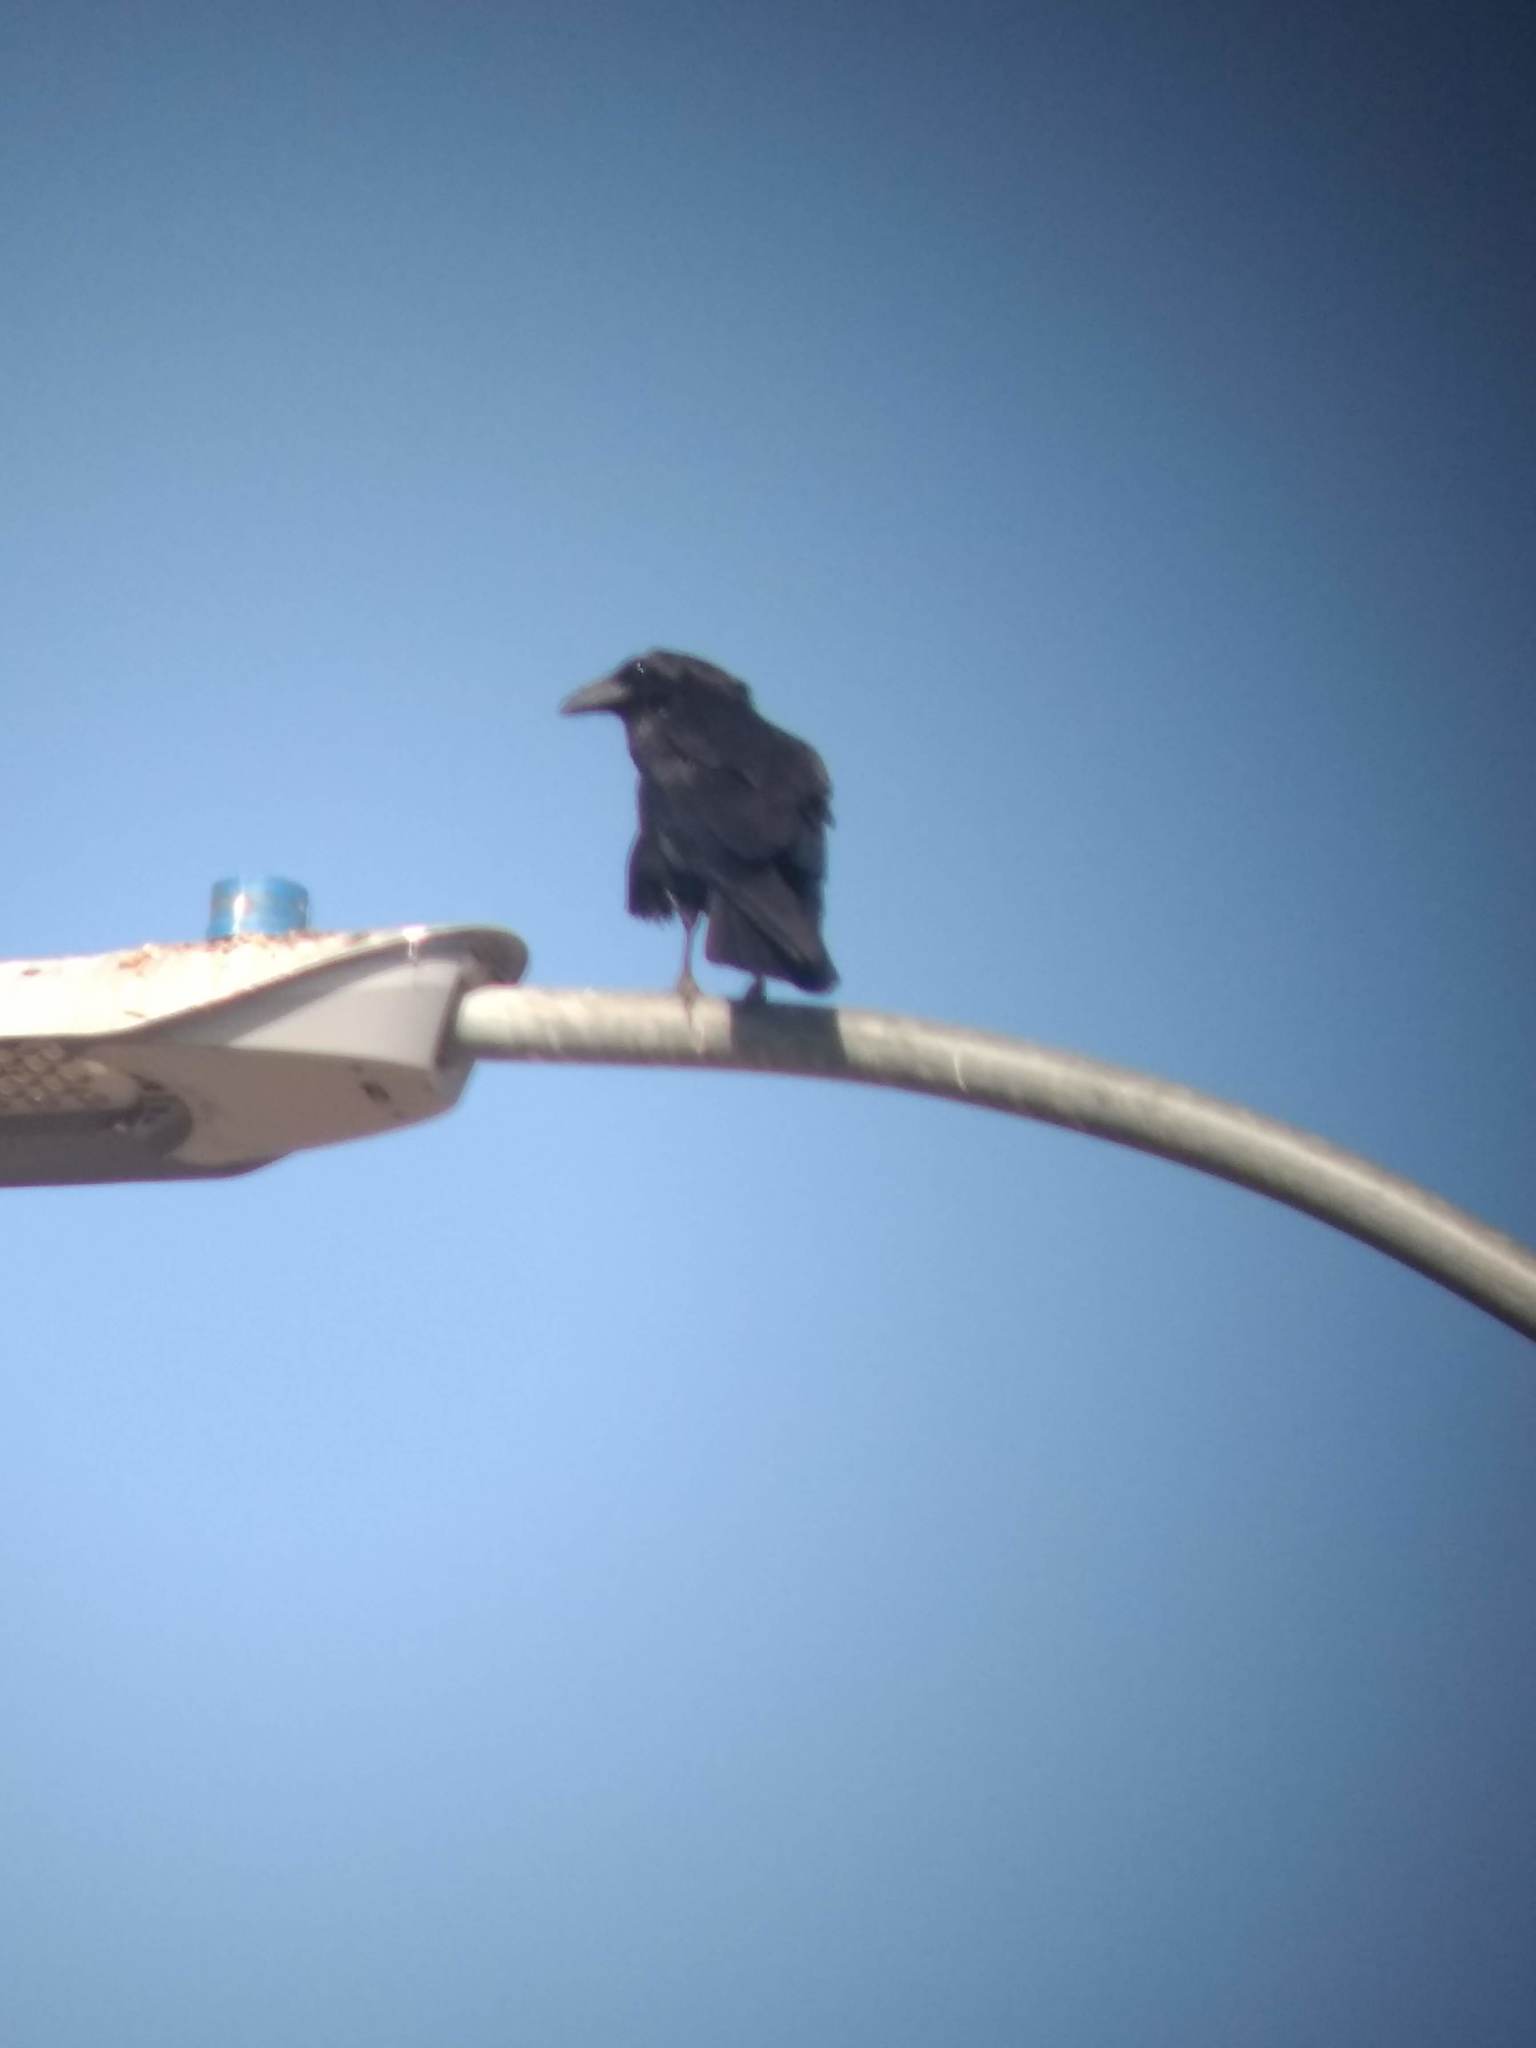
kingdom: Animalia
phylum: Chordata
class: Aves
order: Passeriformes
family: Corvidae
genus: Corvus
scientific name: Corvus corax
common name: Common raven
